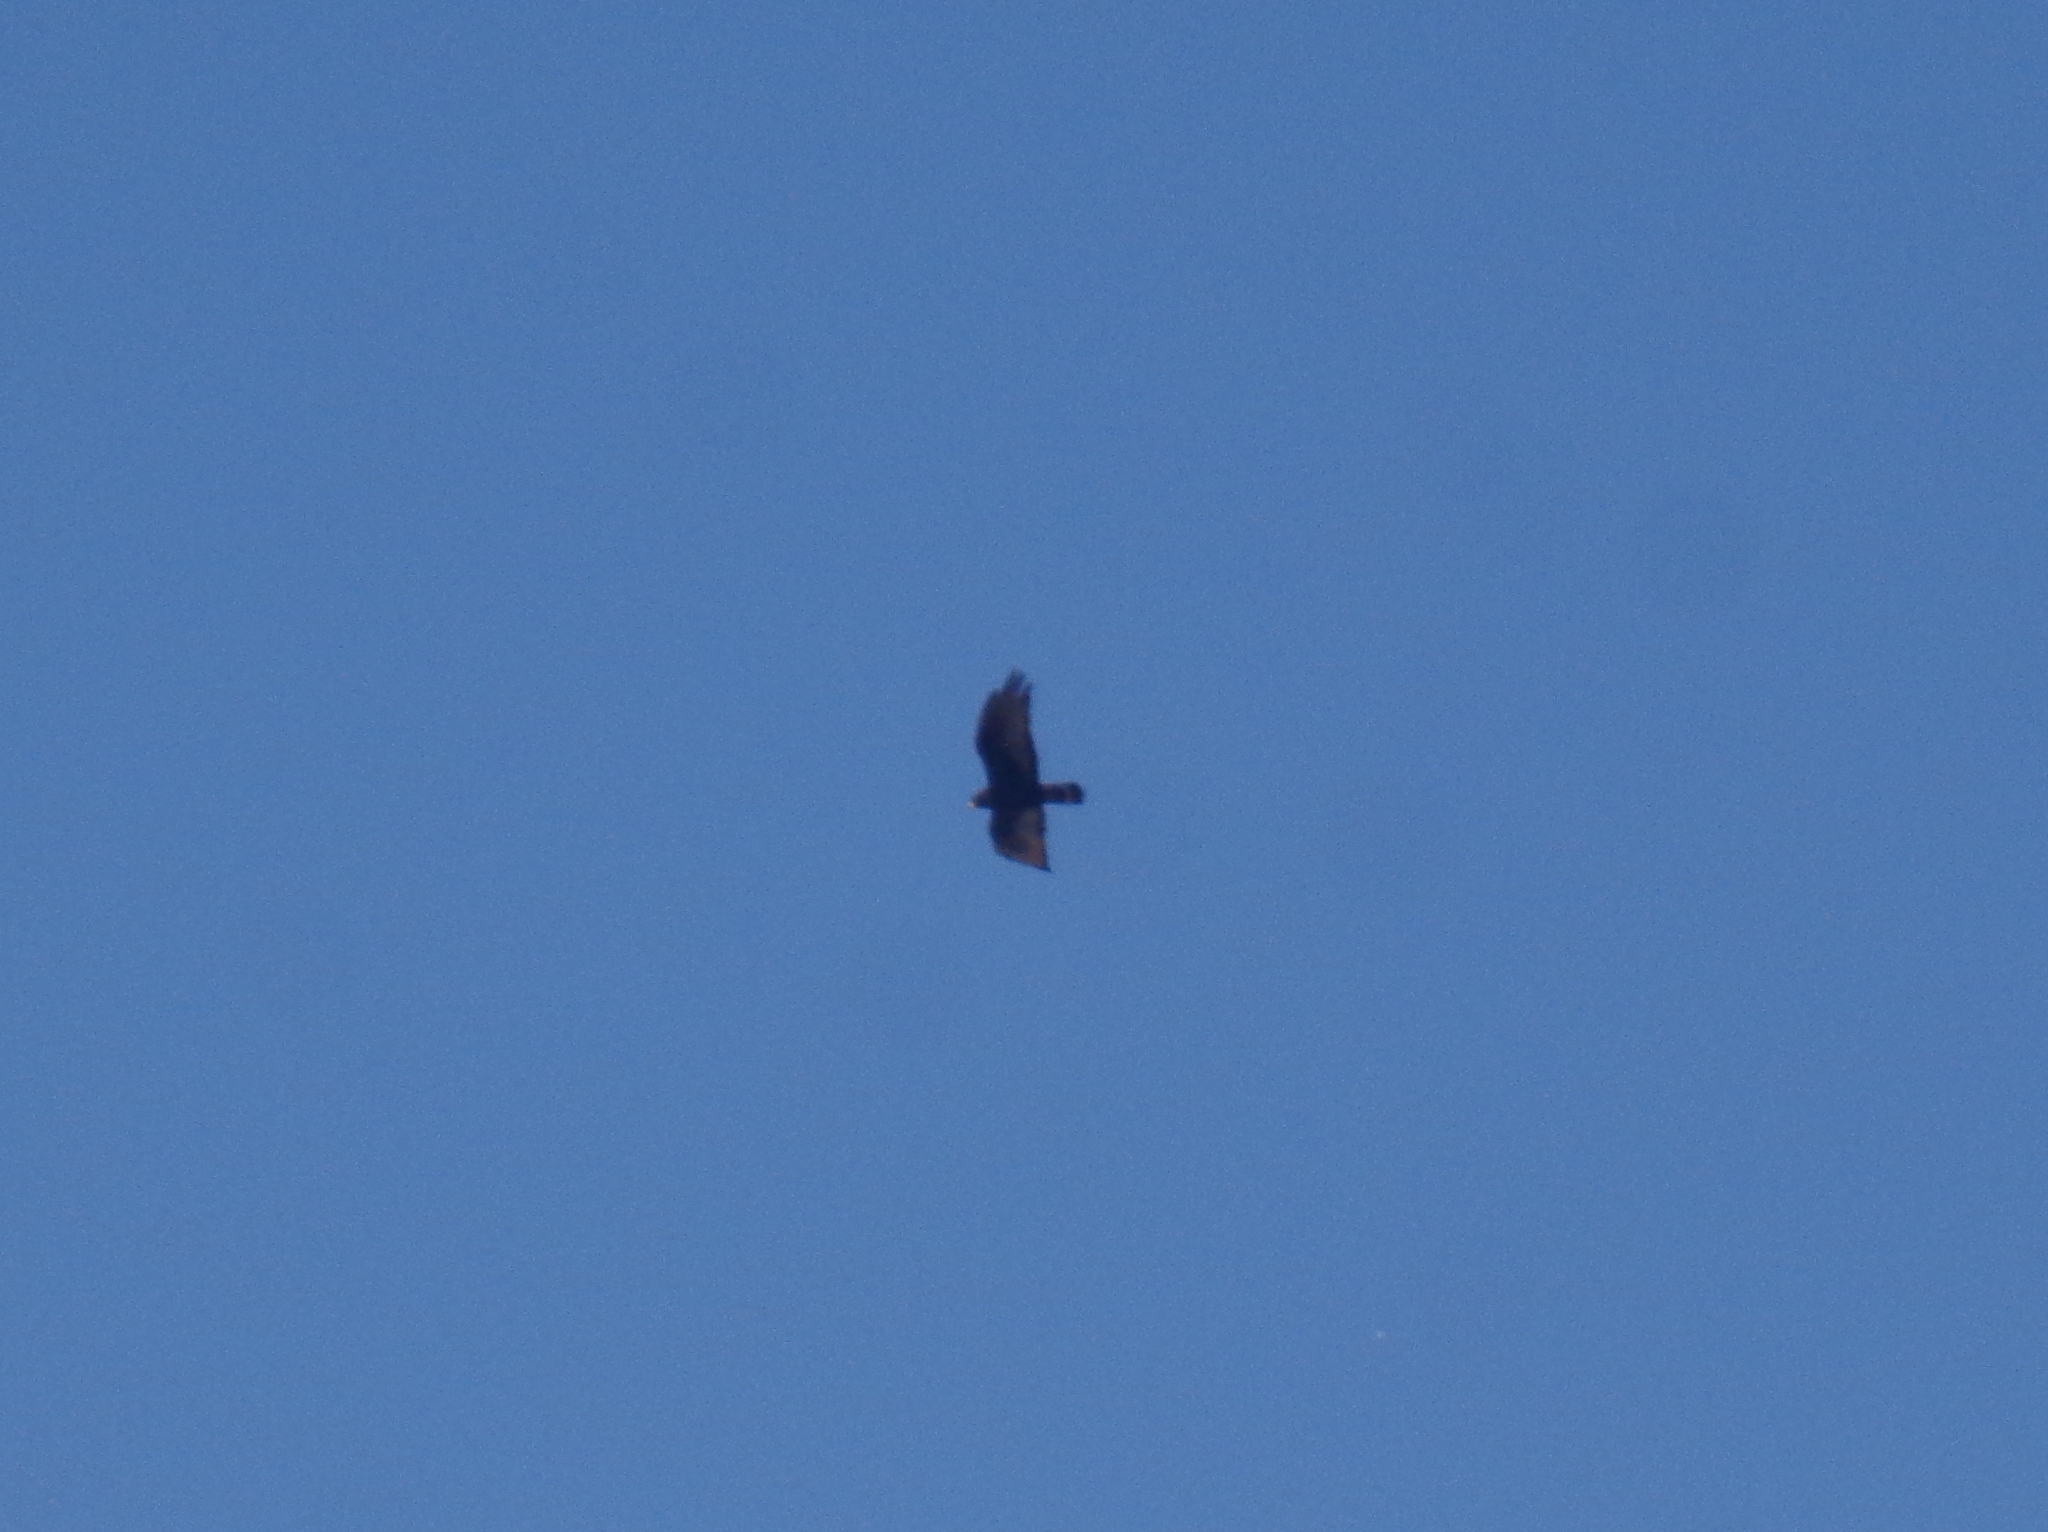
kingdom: Animalia
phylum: Chordata
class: Aves
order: Accipitriformes
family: Accipitridae
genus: Buteo
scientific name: Buteo albonotatus
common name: Zone-tailed hawk
